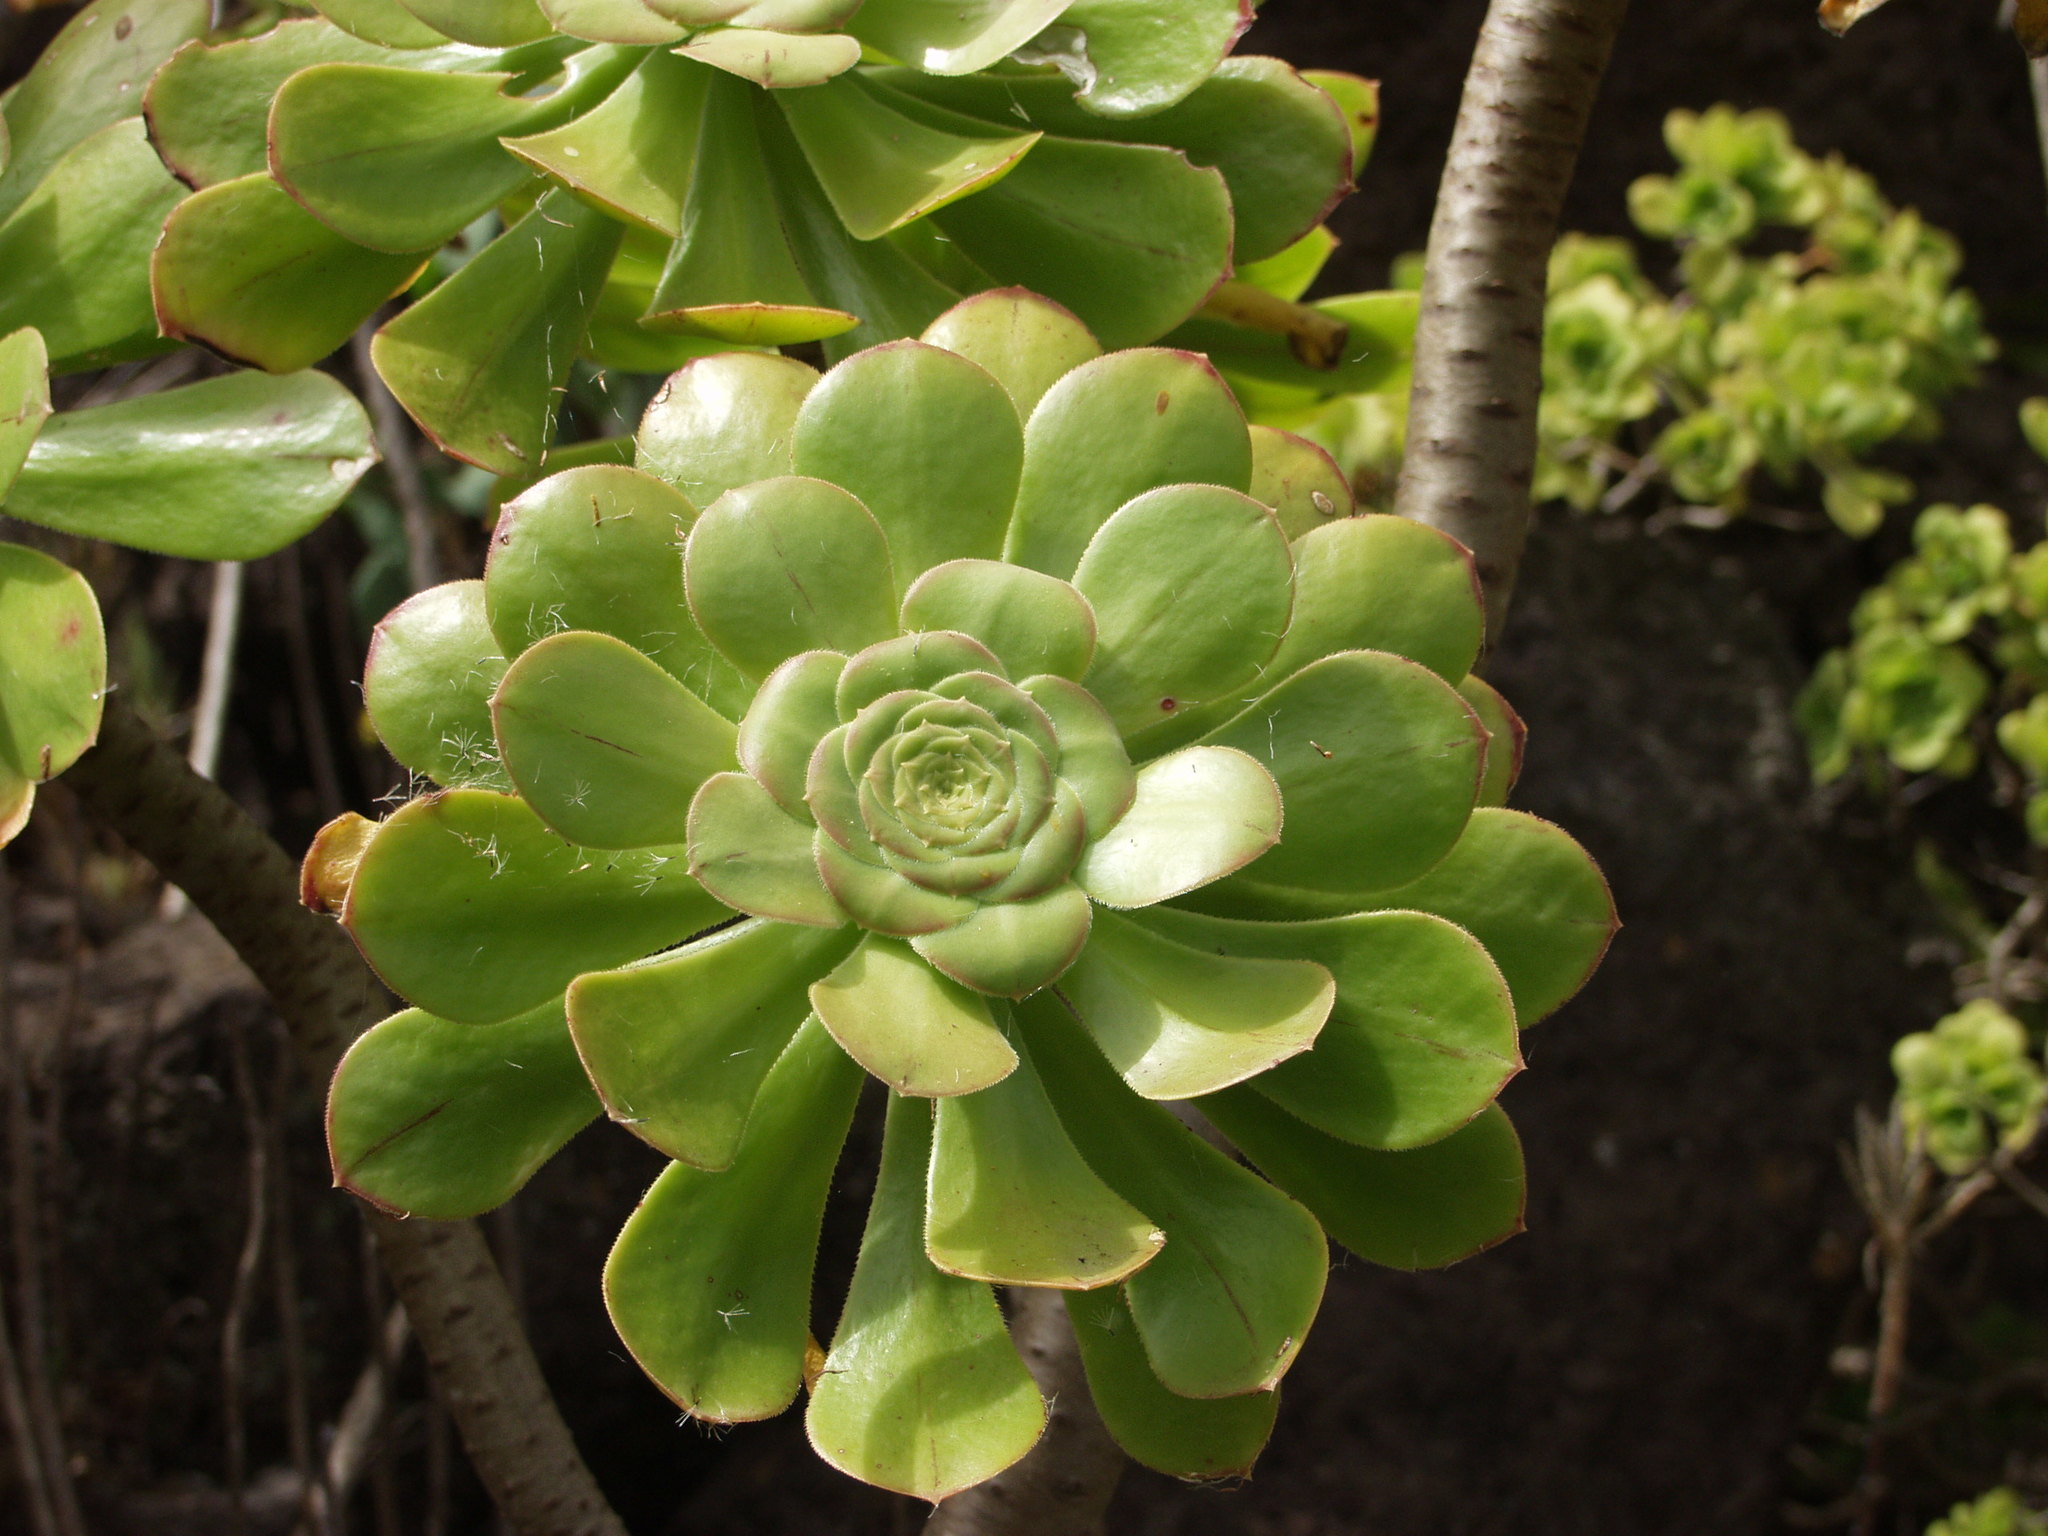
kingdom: Plantae
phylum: Tracheophyta
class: Magnoliopsida
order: Saxifragales
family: Crassulaceae
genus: Aeonium
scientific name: Aeonium arboreum
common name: Tree aeonium
